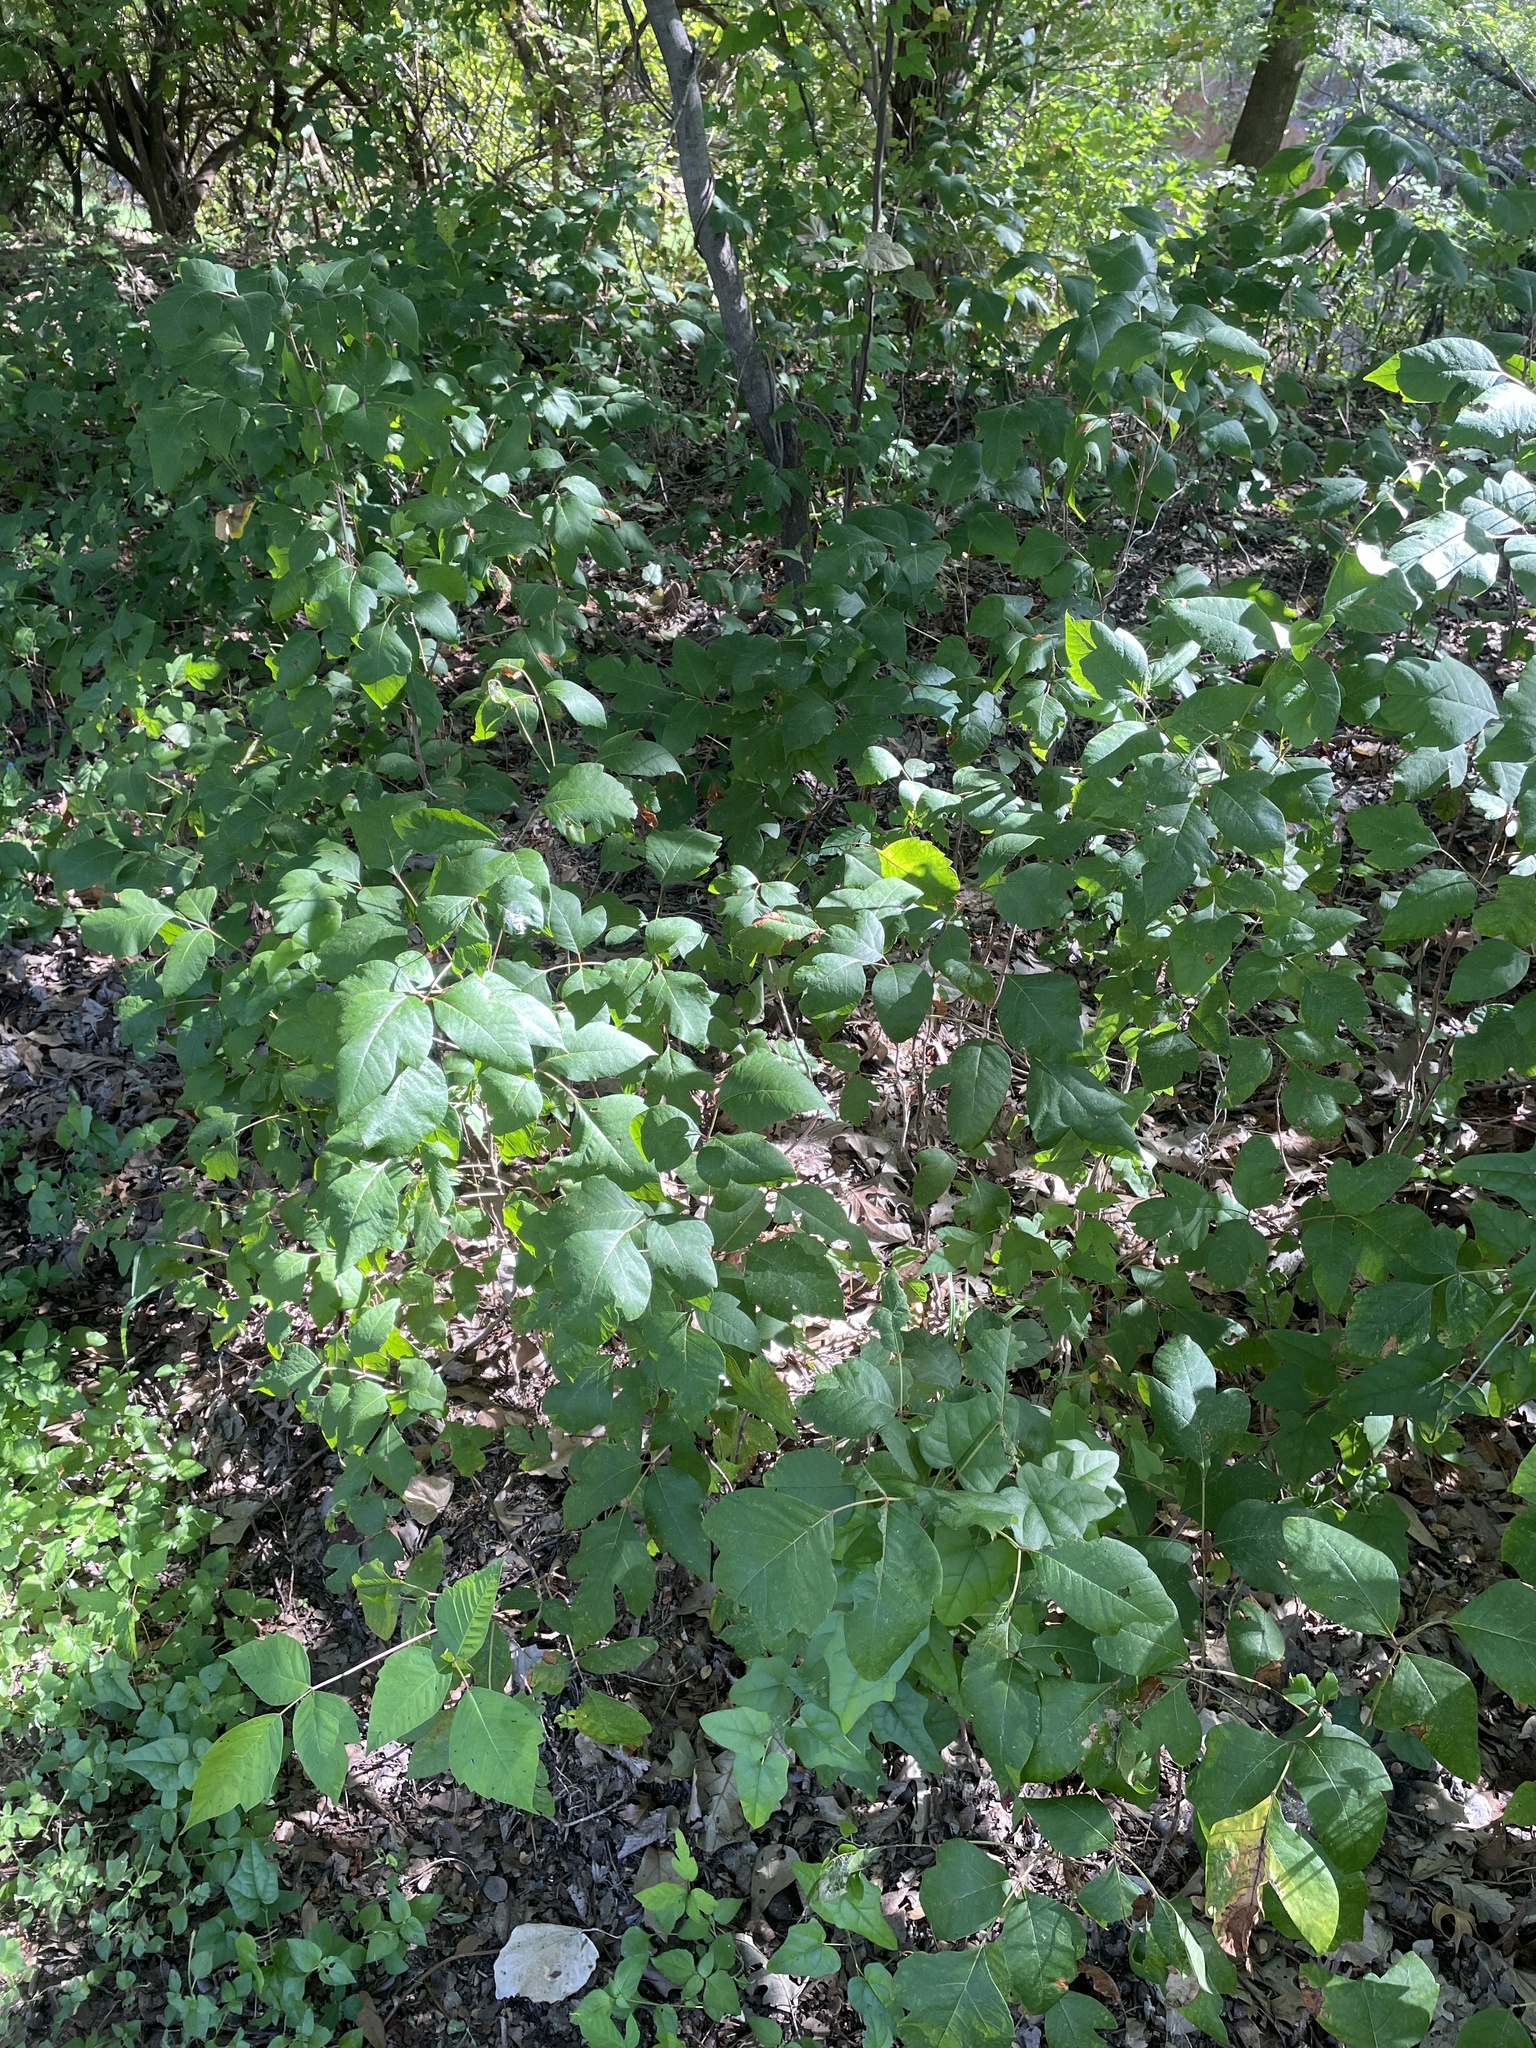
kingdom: Plantae
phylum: Tracheophyta
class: Magnoliopsida
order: Sapindales
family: Anacardiaceae
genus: Toxicodendron
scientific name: Toxicodendron radicans
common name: Poison ivy
